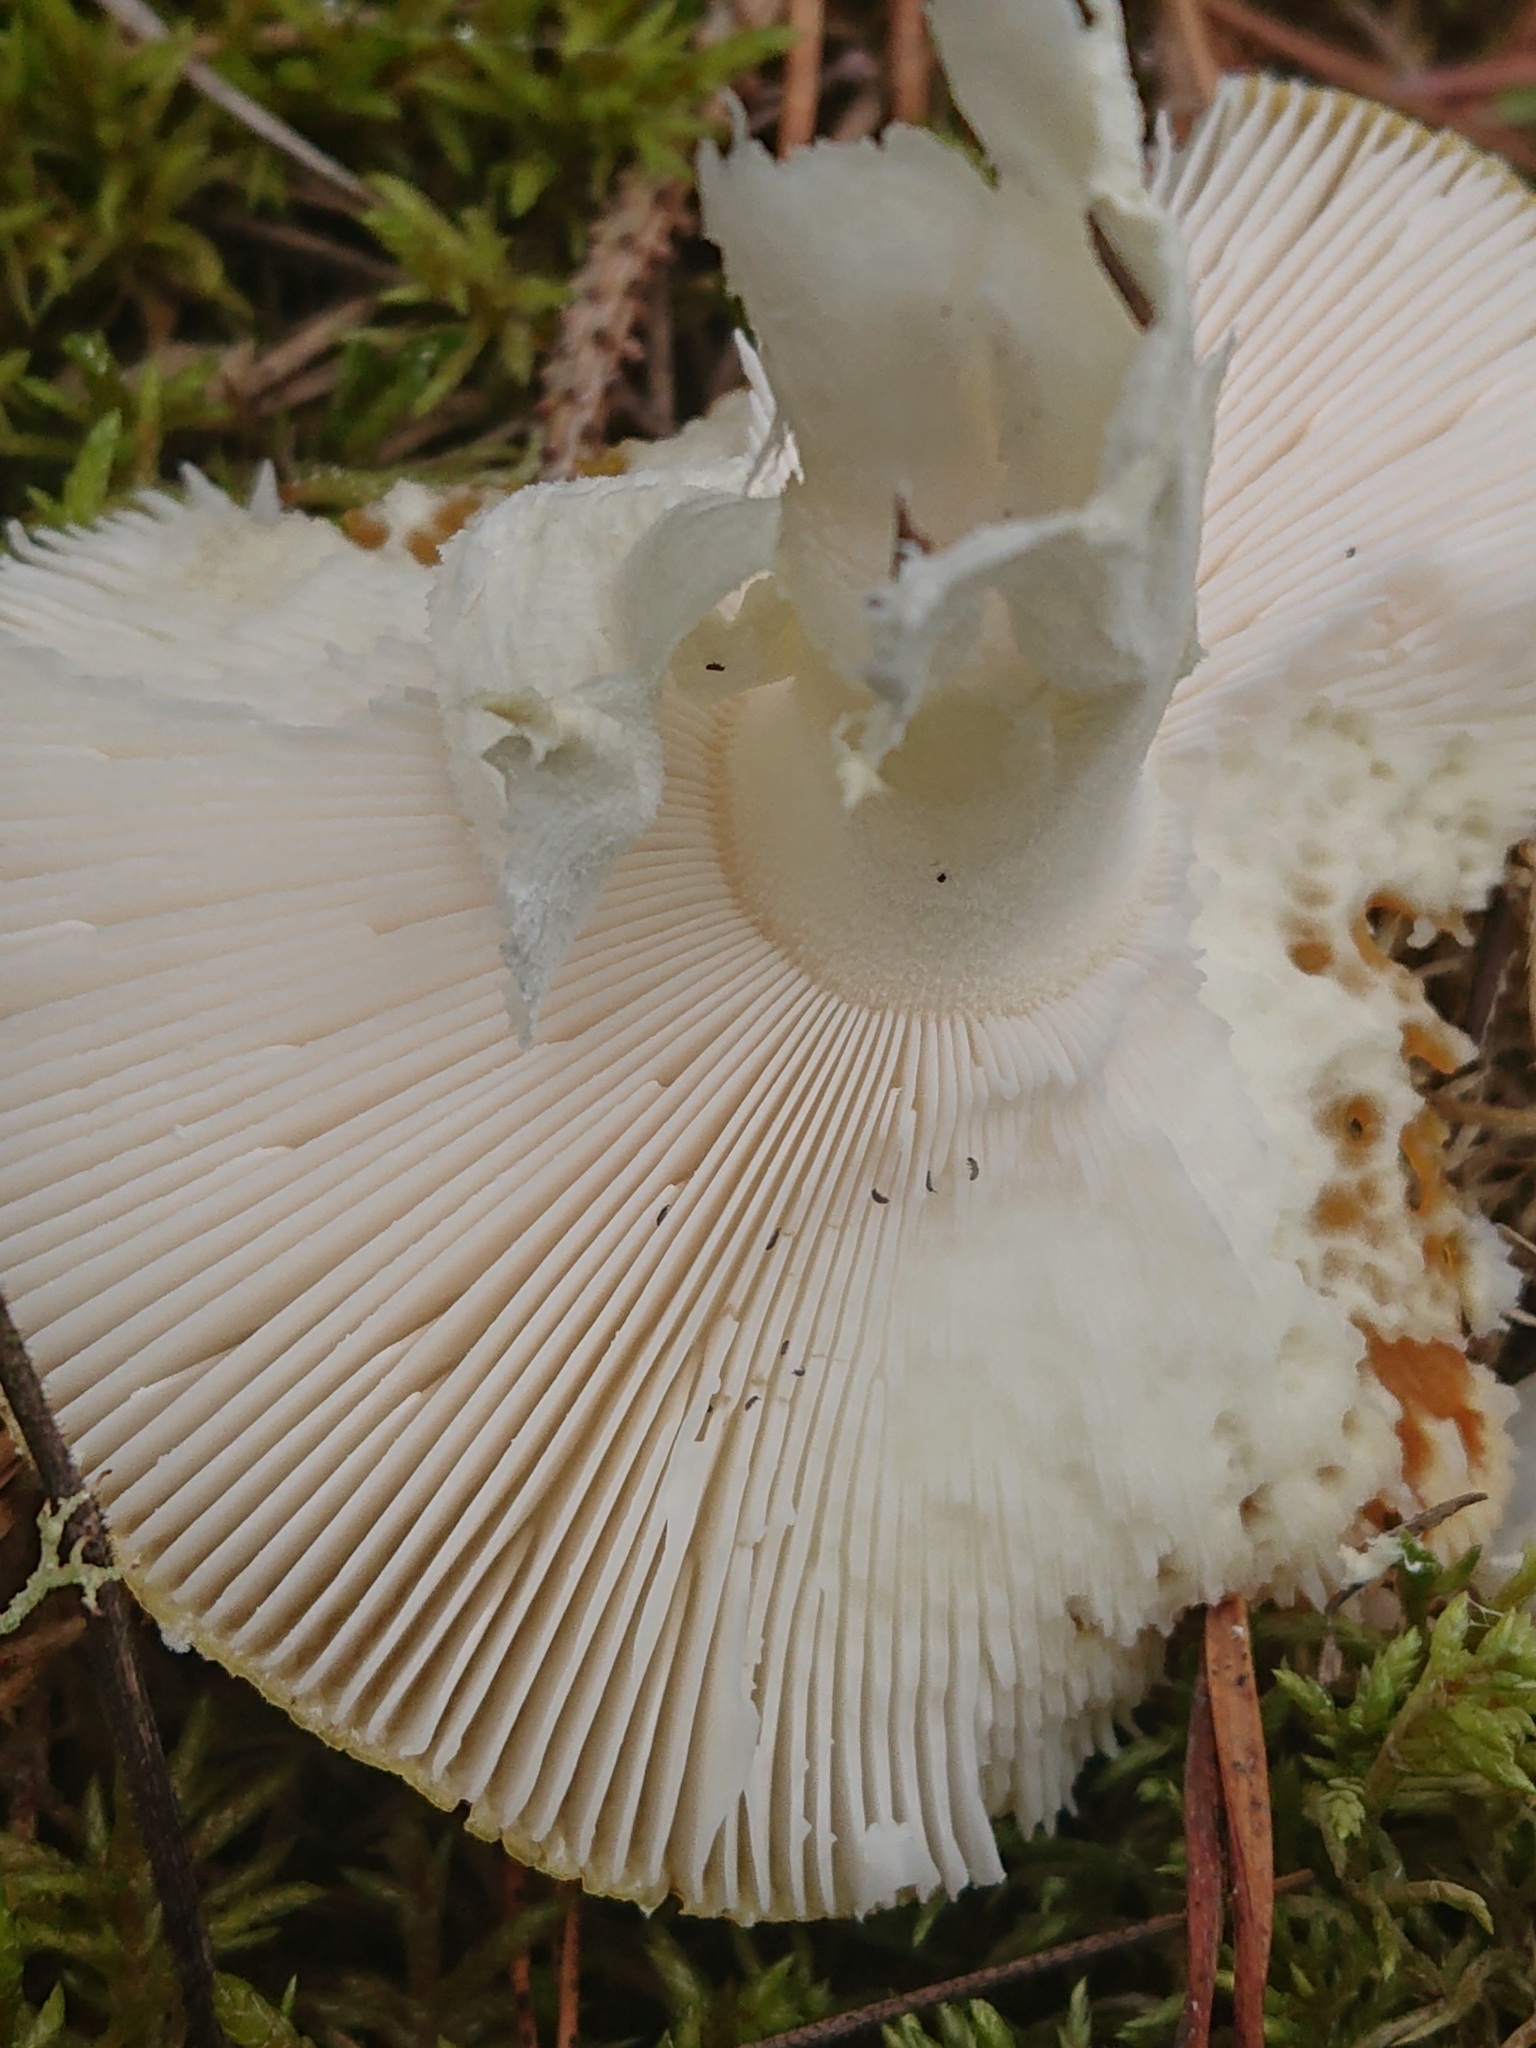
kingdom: Fungi
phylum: Basidiomycota
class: Agaricomycetes
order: Agaricales
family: Amanitaceae
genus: Amanita
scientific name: Amanita muscaria
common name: Fly agaric
